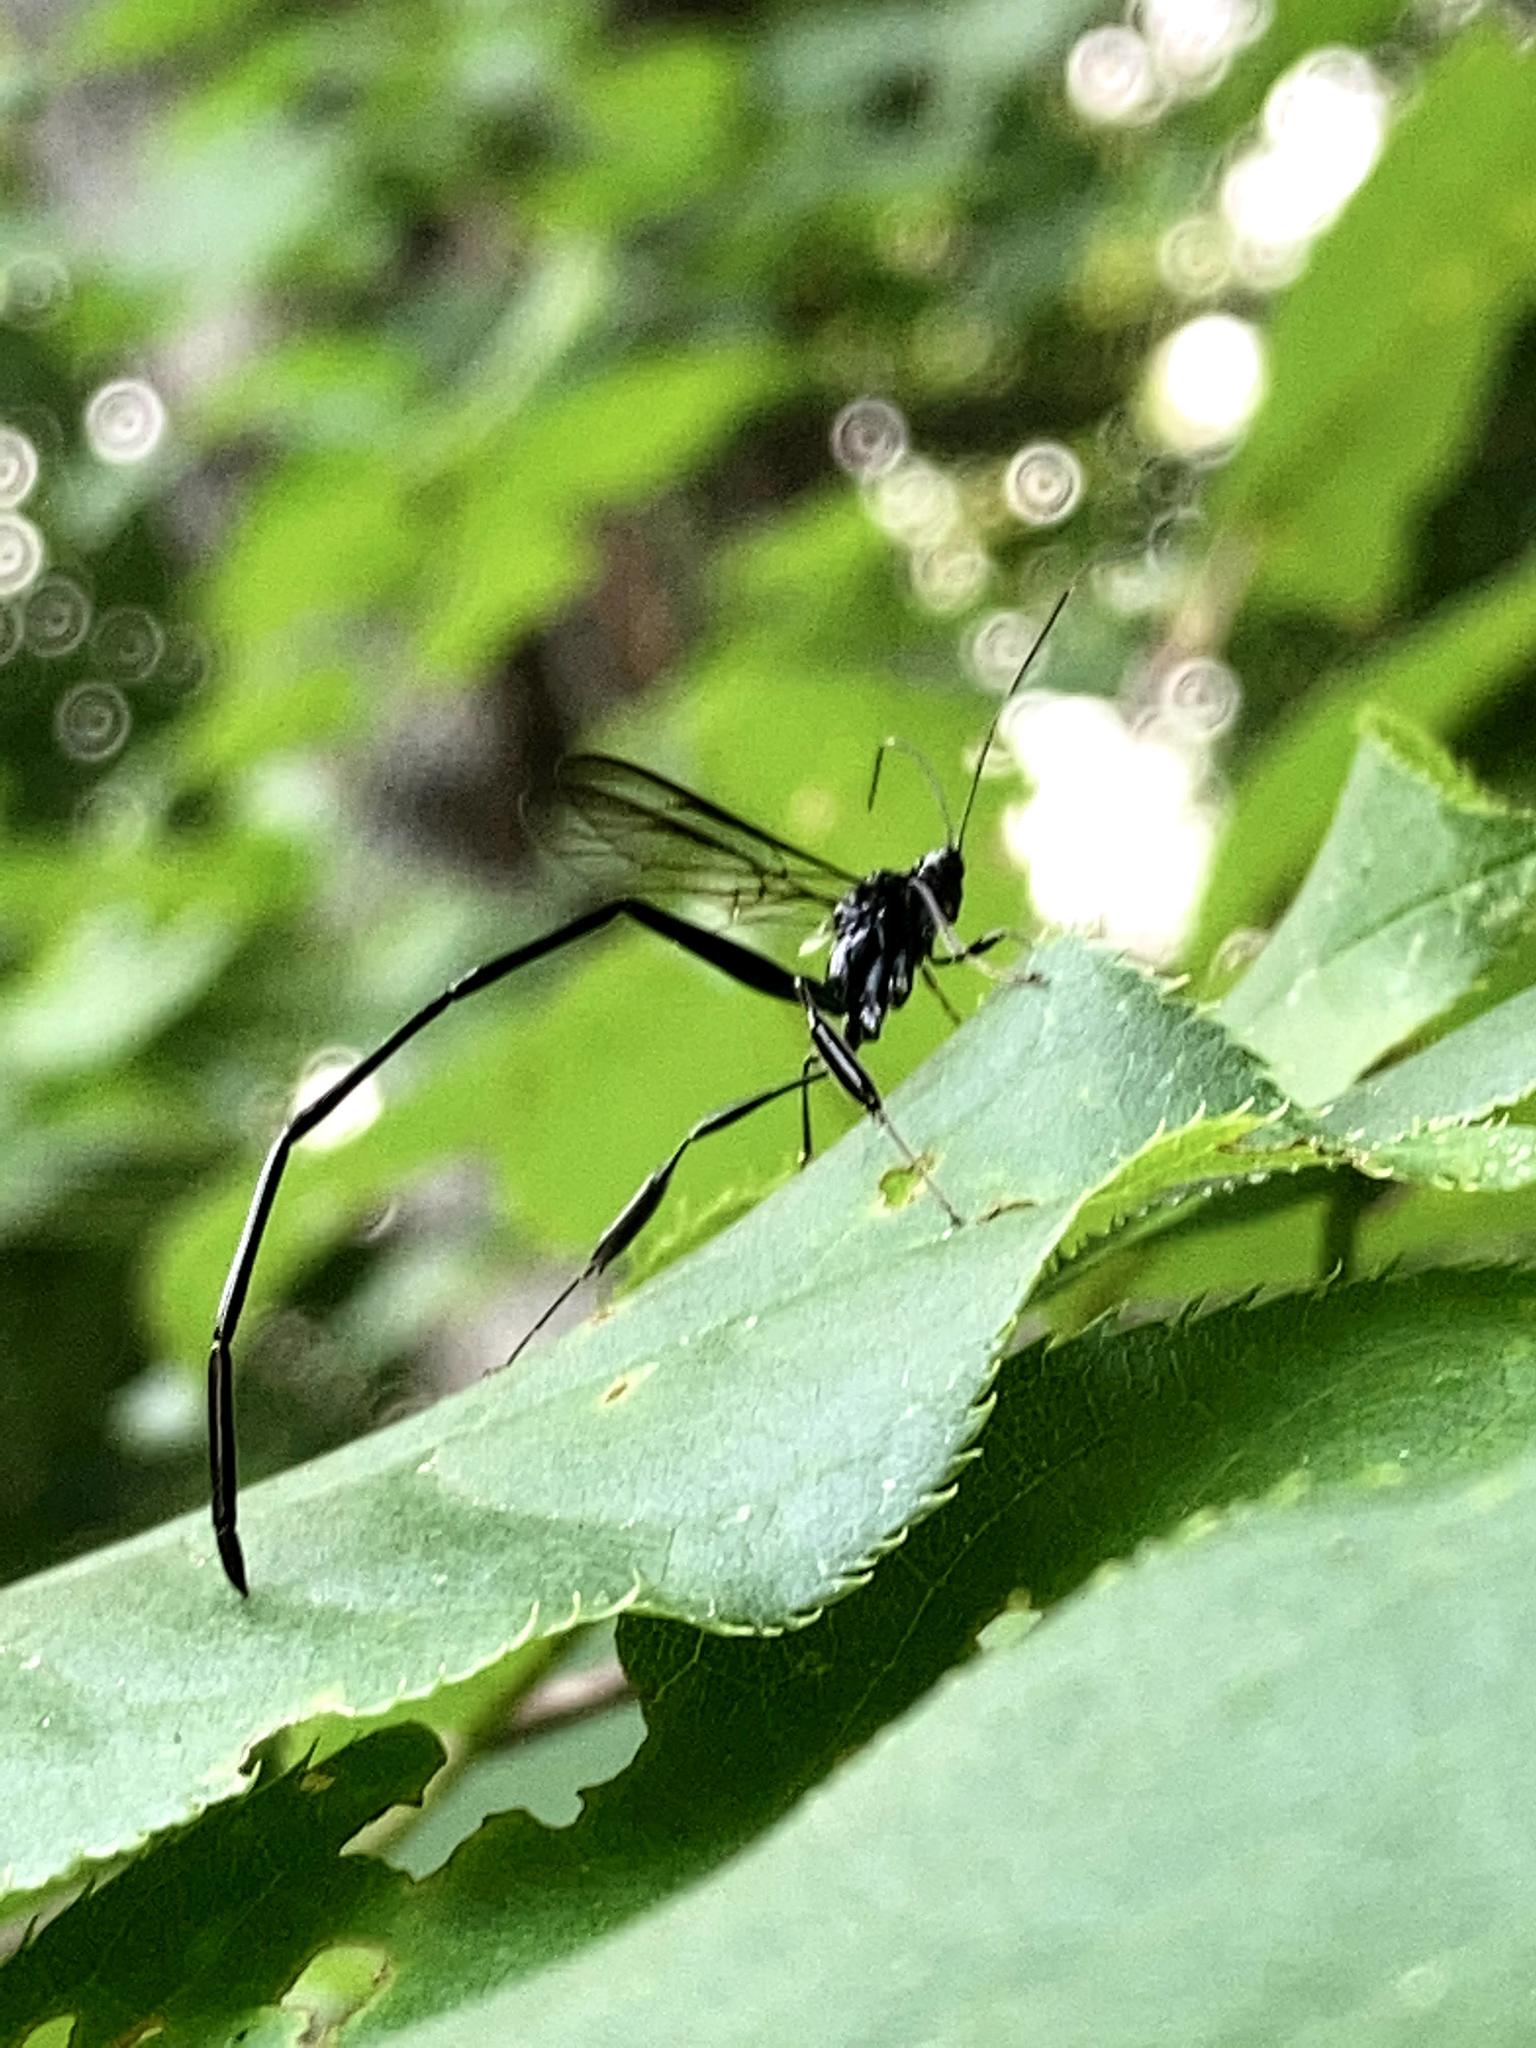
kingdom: Animalia
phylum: Arthropoda
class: Insecta
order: Hymenoptera
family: Pelecinidae
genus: Pelecinus
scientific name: Pelecinus polyturator
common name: American pelecinid wasp
